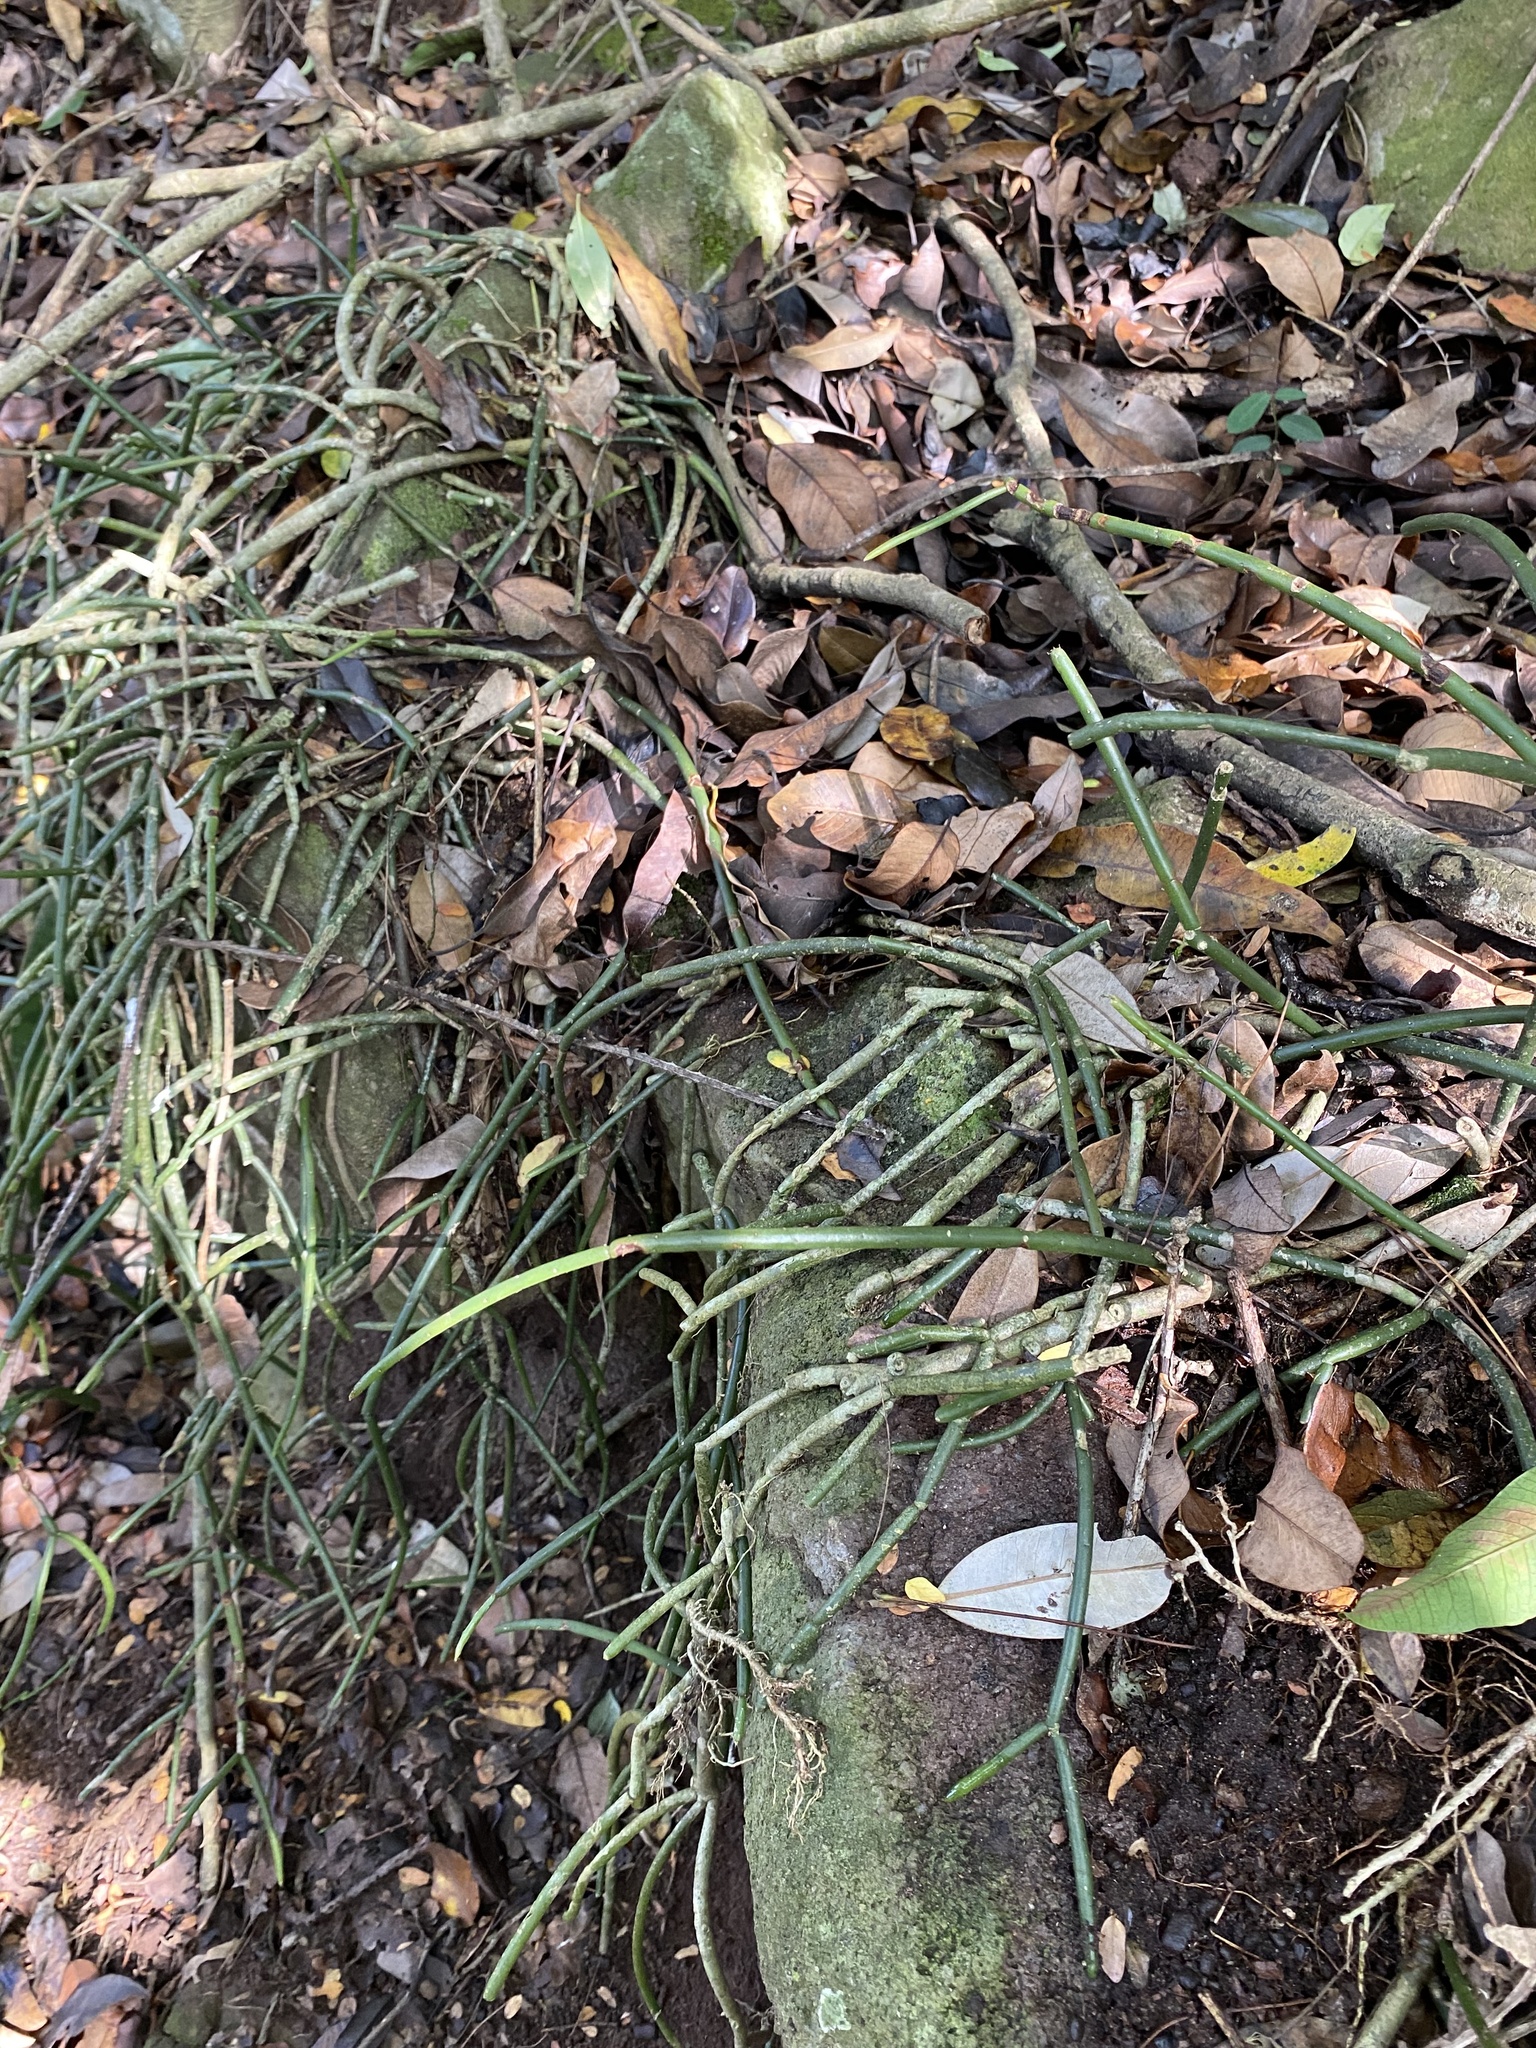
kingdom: Plantae
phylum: Tracheophyta
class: Magnoliopsida
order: Caryophyllales
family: Cactaceae
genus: Rhipsalis
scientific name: Rhipsalis baccifera
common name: Mistletoe cactus
